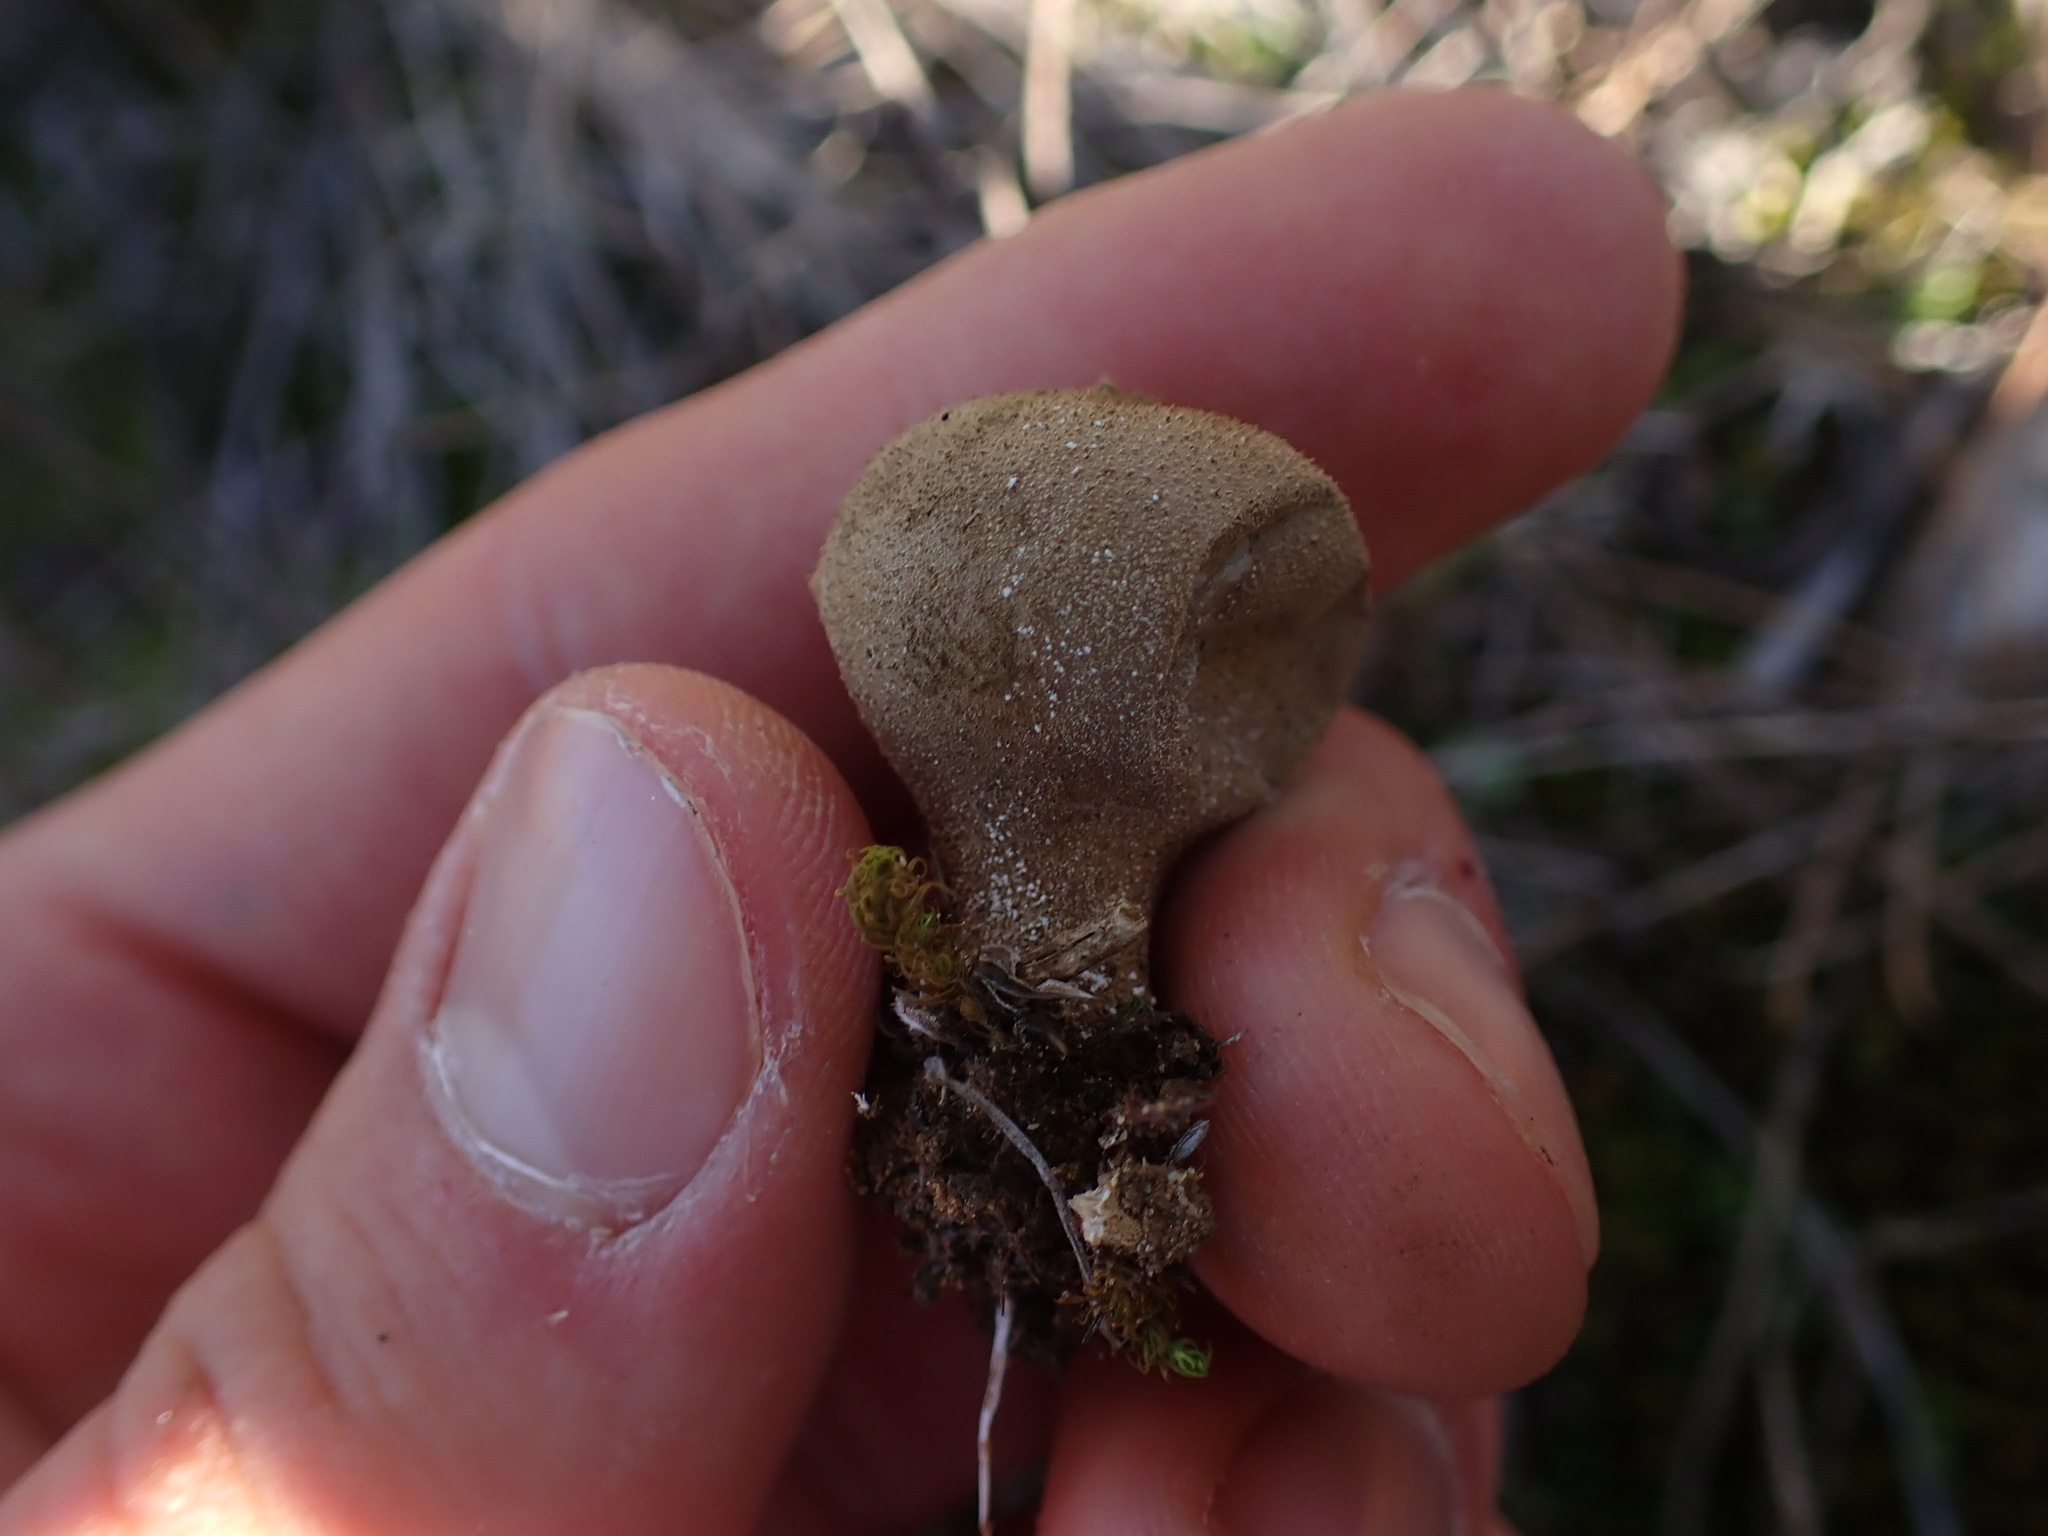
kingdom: Fungi
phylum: Basidiomycota
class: Agaricomycetes
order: Agaricales
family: Lycoperdaceae
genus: Lycoperdon
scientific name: Lycoperdon perlatum
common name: Common puffball
